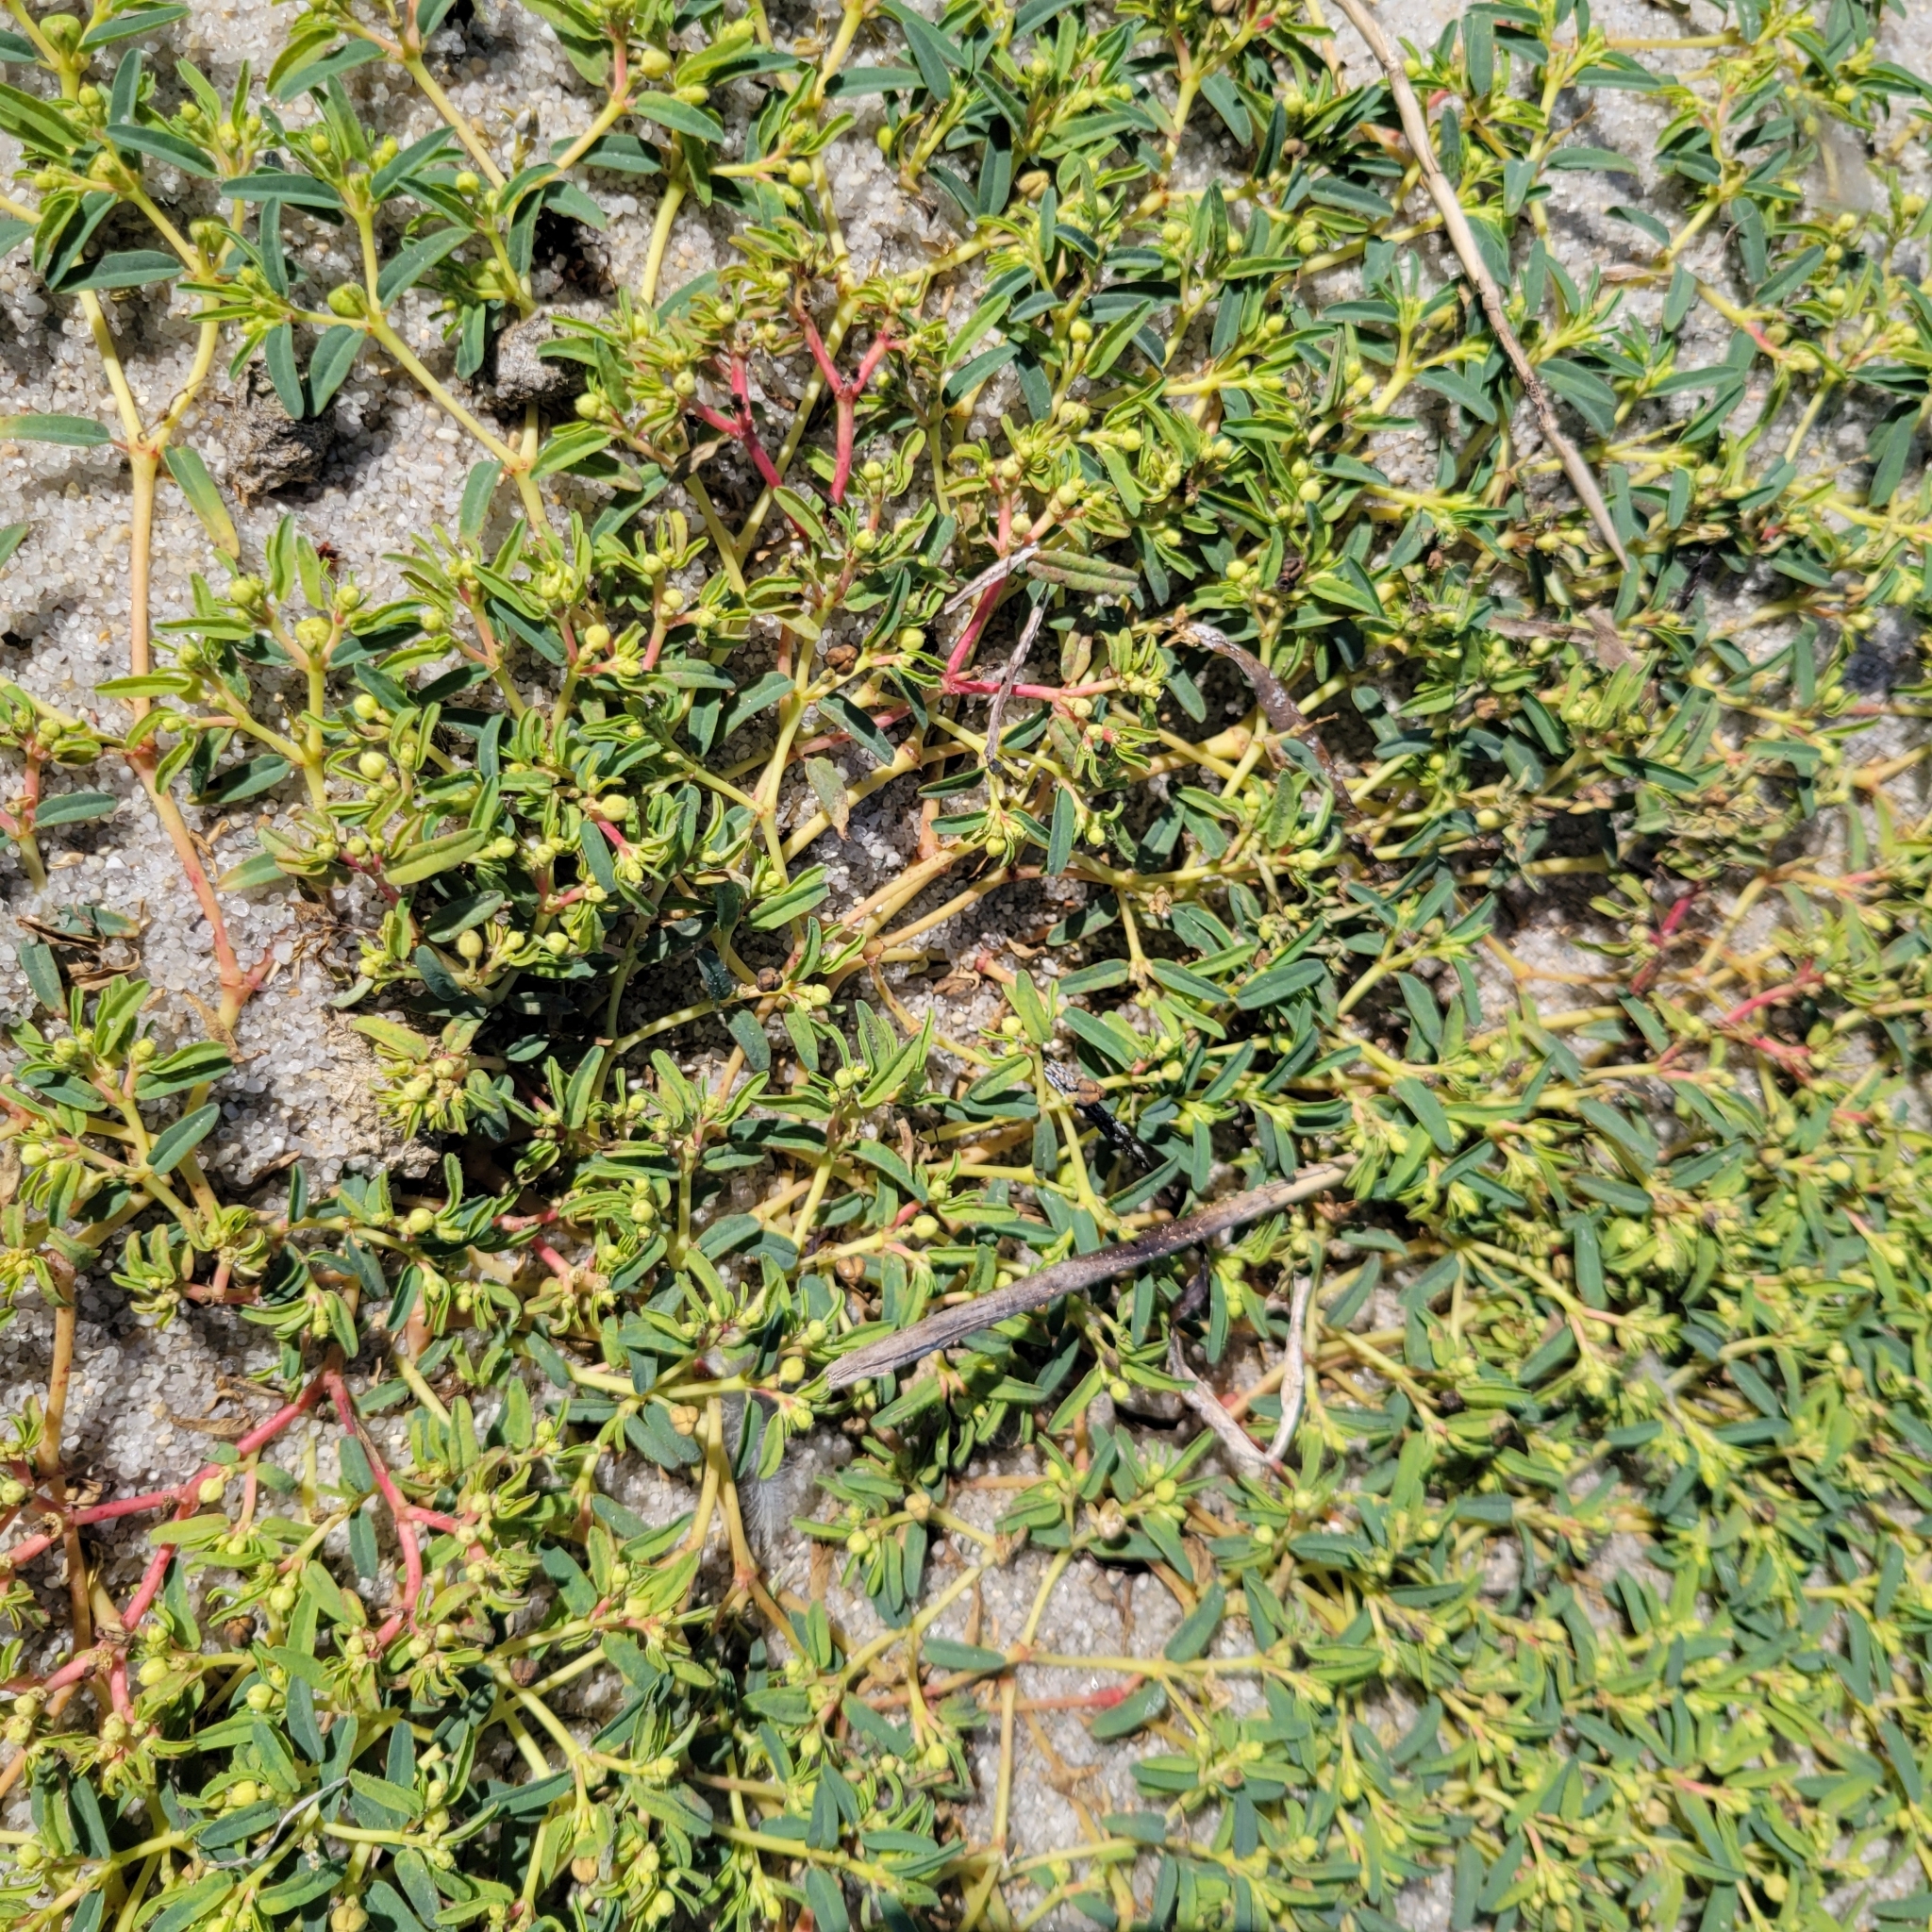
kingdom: Plantae
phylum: Tracheophyta
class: Magnoliopsida
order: Malpighiales
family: Euphorbiaceae
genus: Euphorbia
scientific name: Euphorbia polygonifolia
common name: Knotweed spurge
